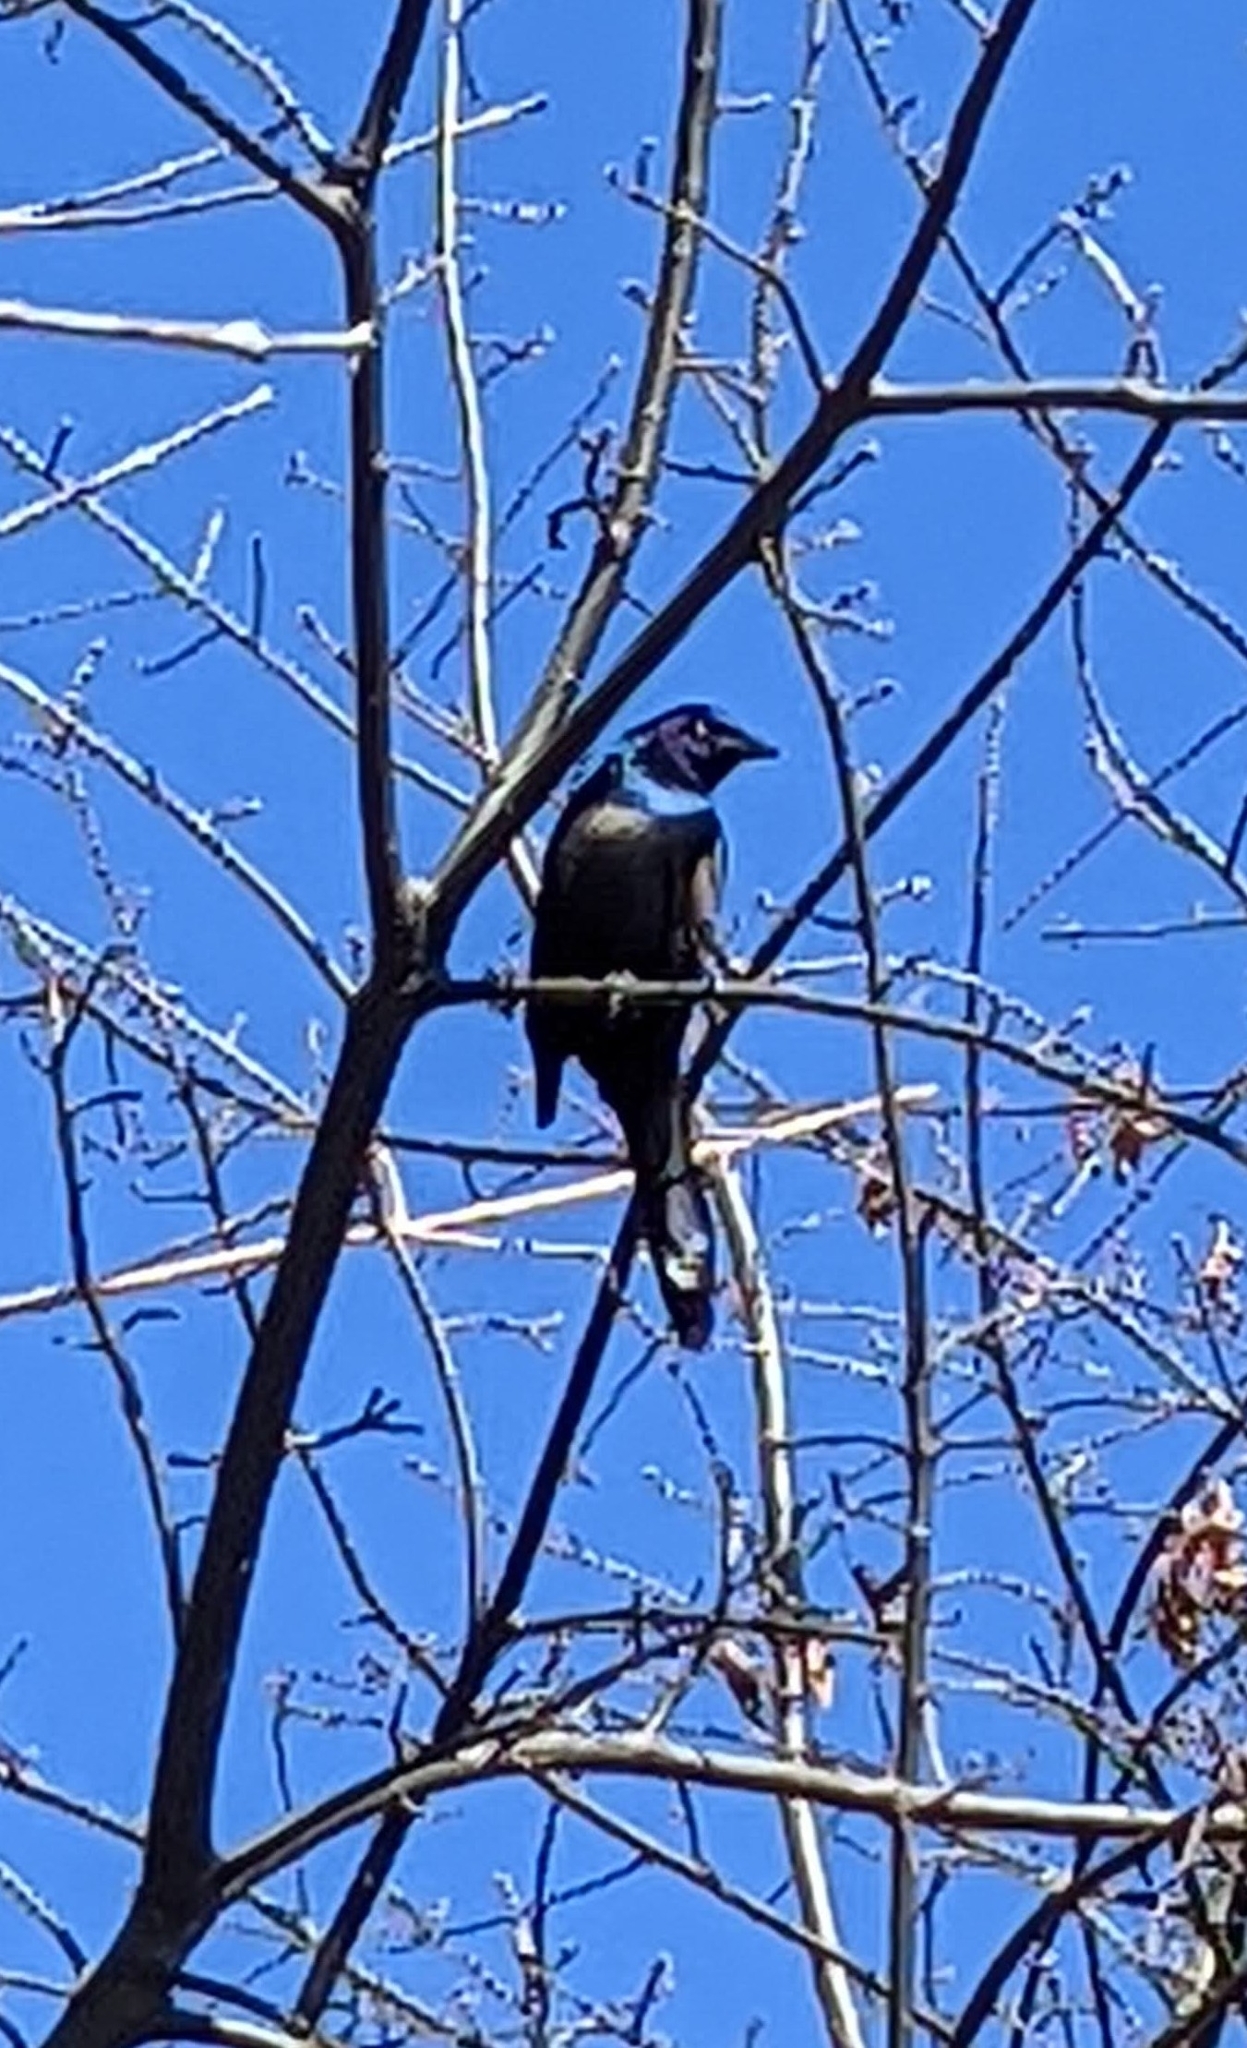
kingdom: Animalia
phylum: Chordata
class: Aves
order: Passeriformes
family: Icteridae
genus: Quiscalus
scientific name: Quiscalus quiscula
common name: Common grackle
